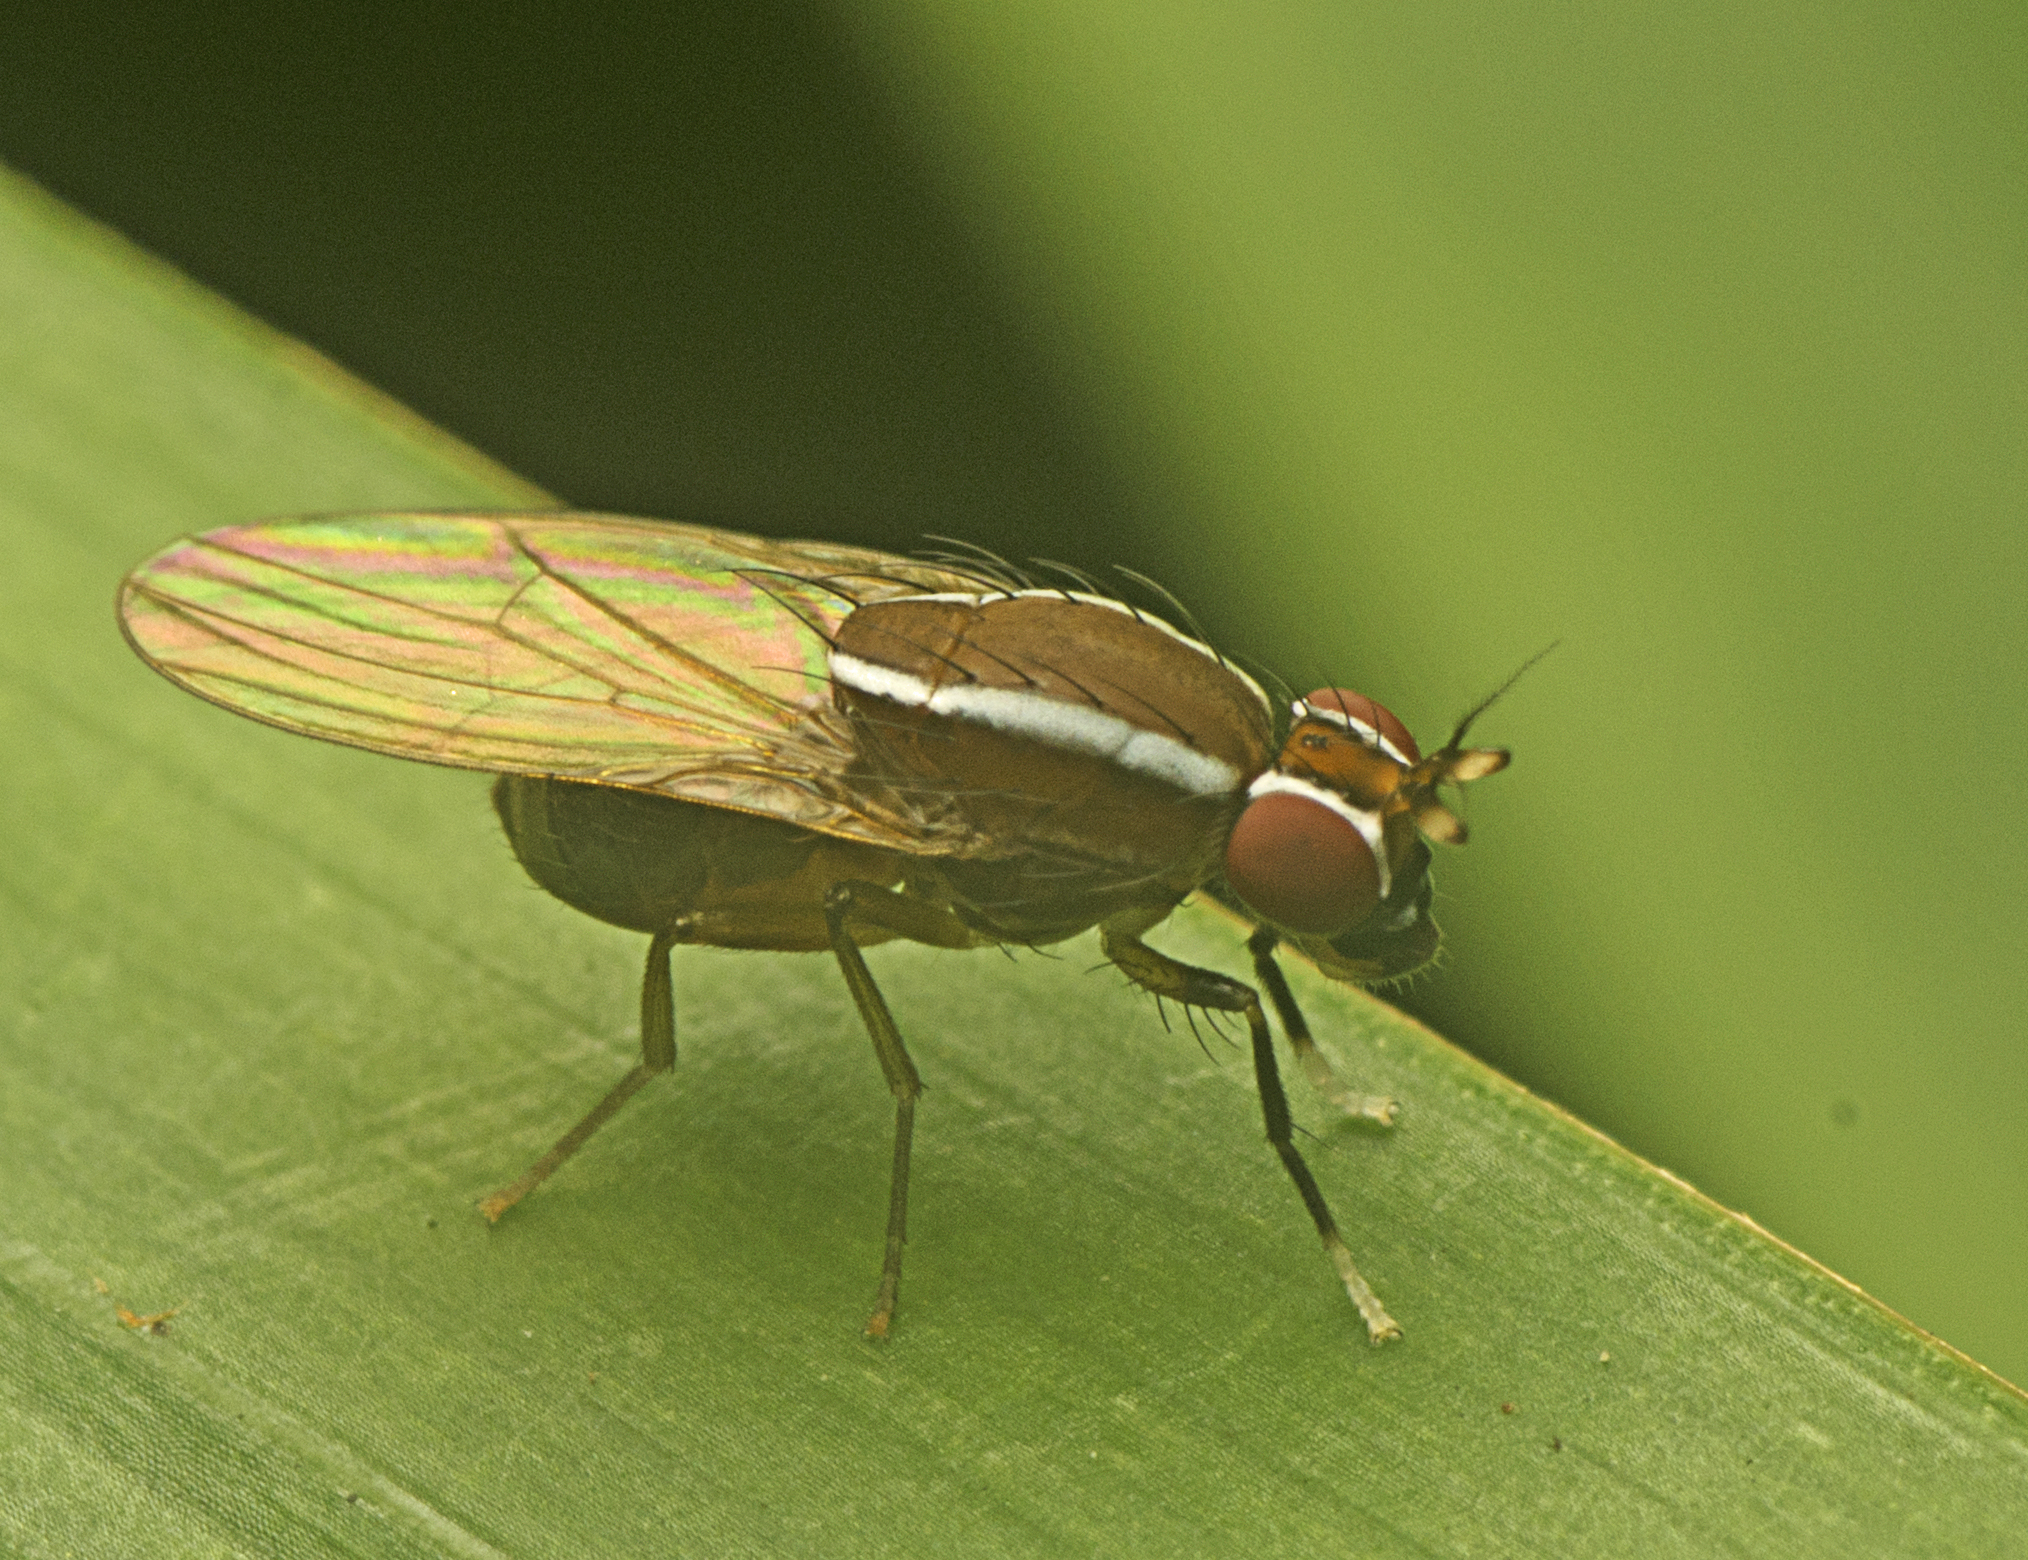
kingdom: Animalia
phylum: Arthropoda
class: Insecta
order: Diptera
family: Lauxaniidae
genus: Poecilohetaerus
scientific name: Poecilohetaerus pinnatus
